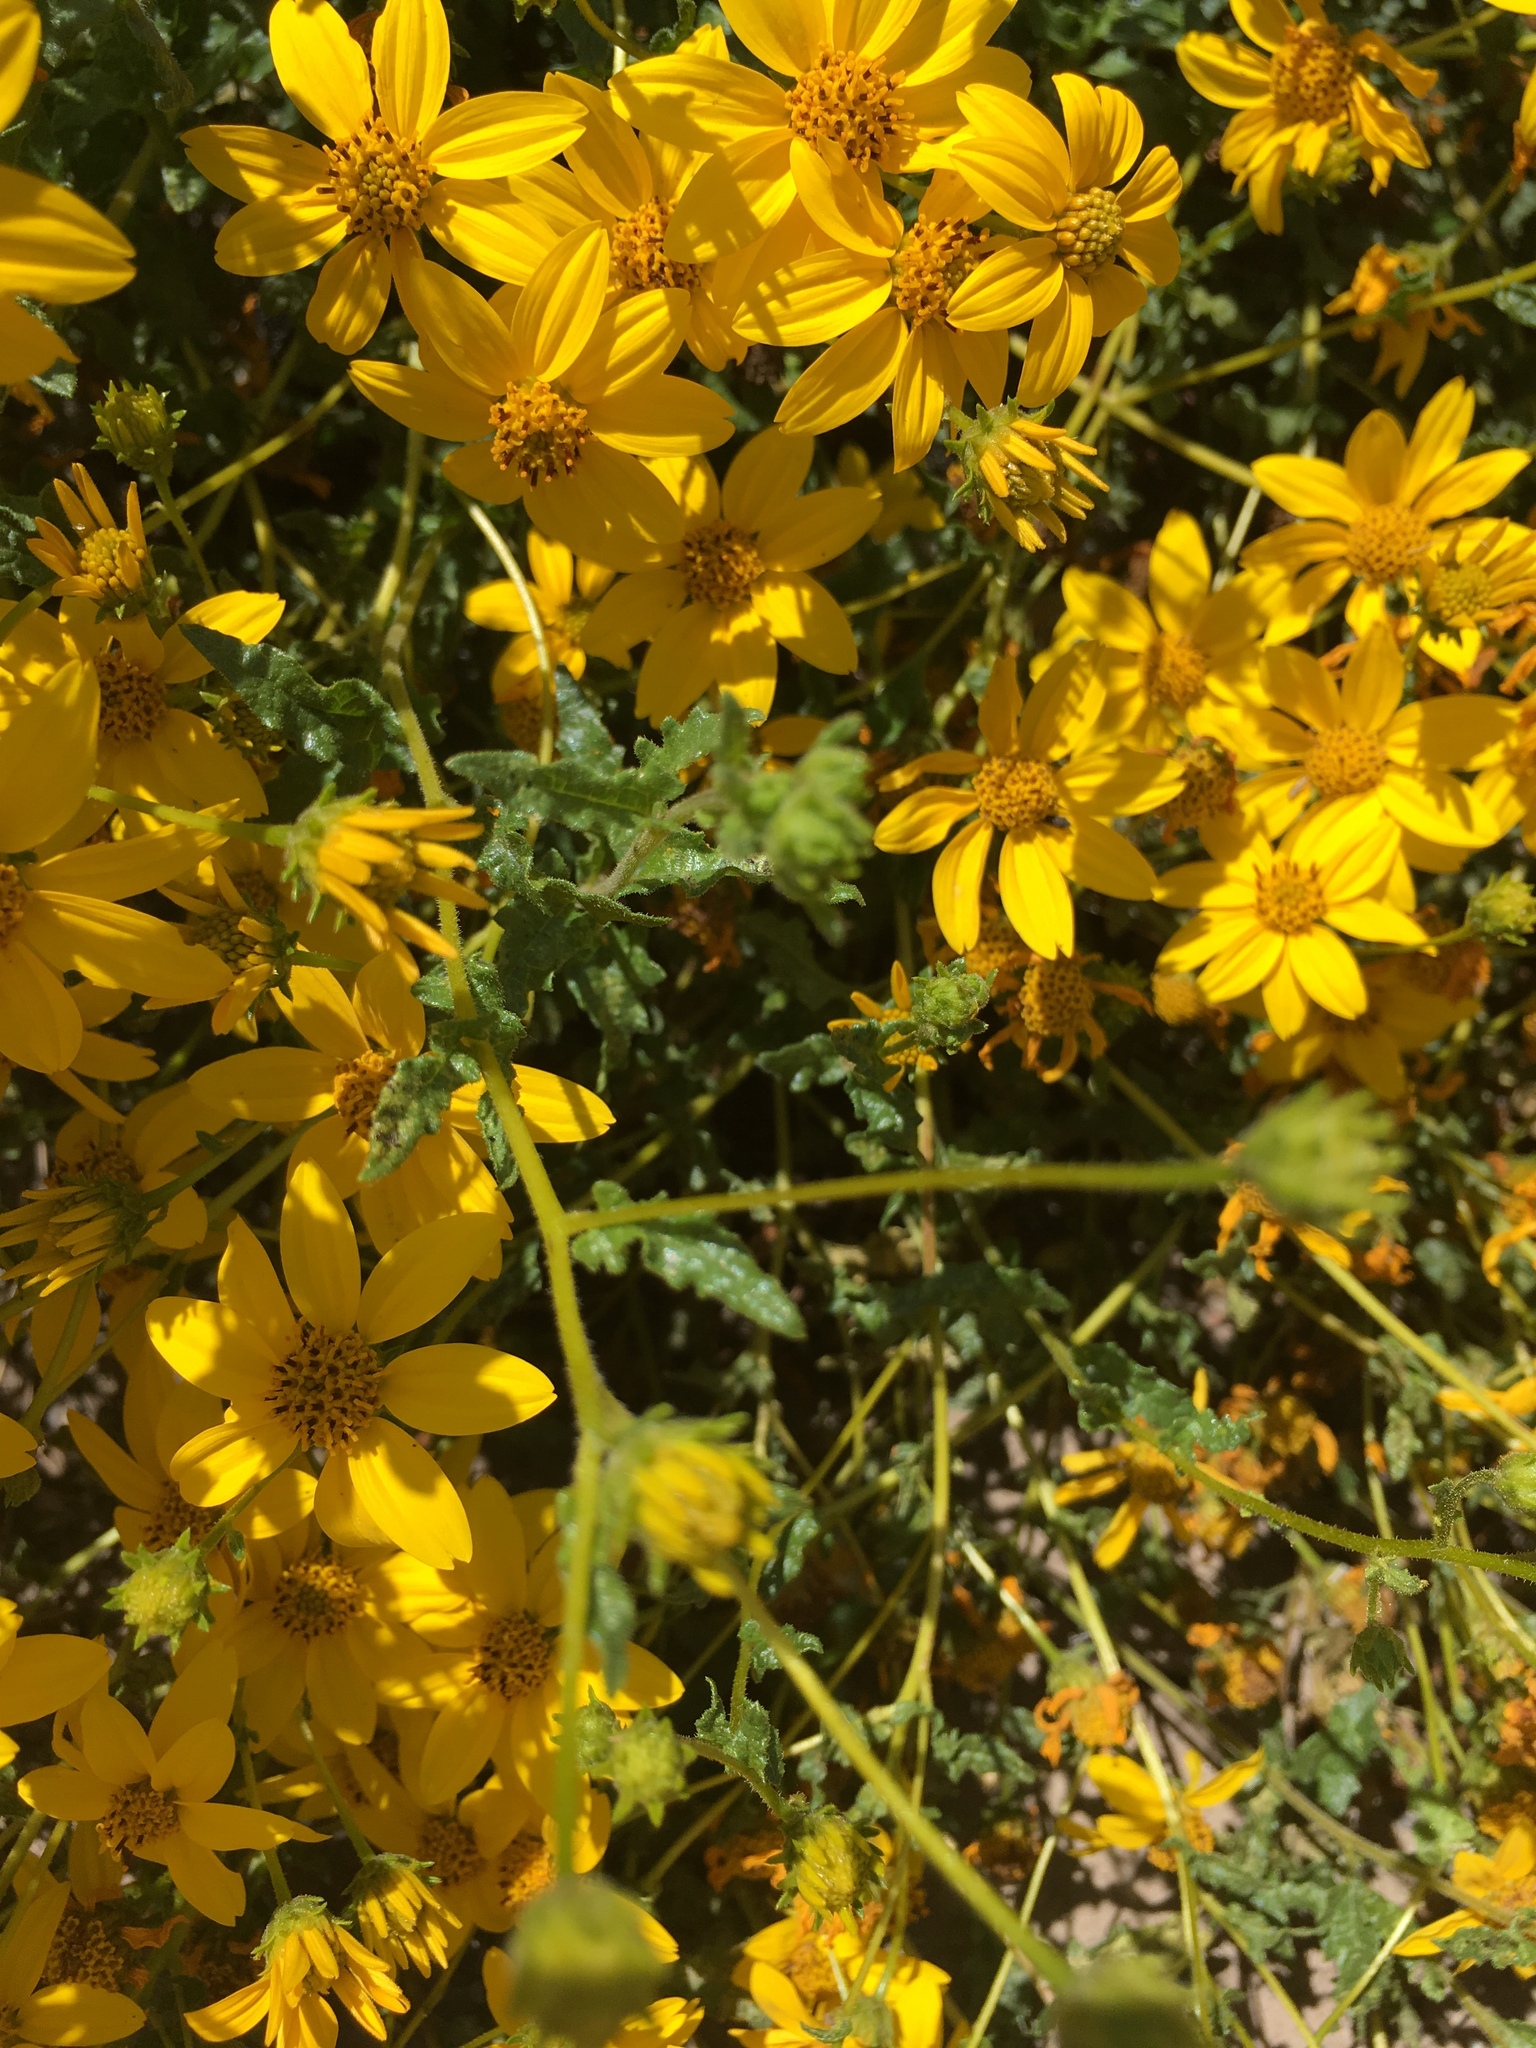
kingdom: Plantae
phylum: Tracheophyta
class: Magnoliopsida
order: Asterales
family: Asteraceae
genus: Bahiopsis
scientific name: Bahiopsis laciniata
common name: San diego county viguiera
